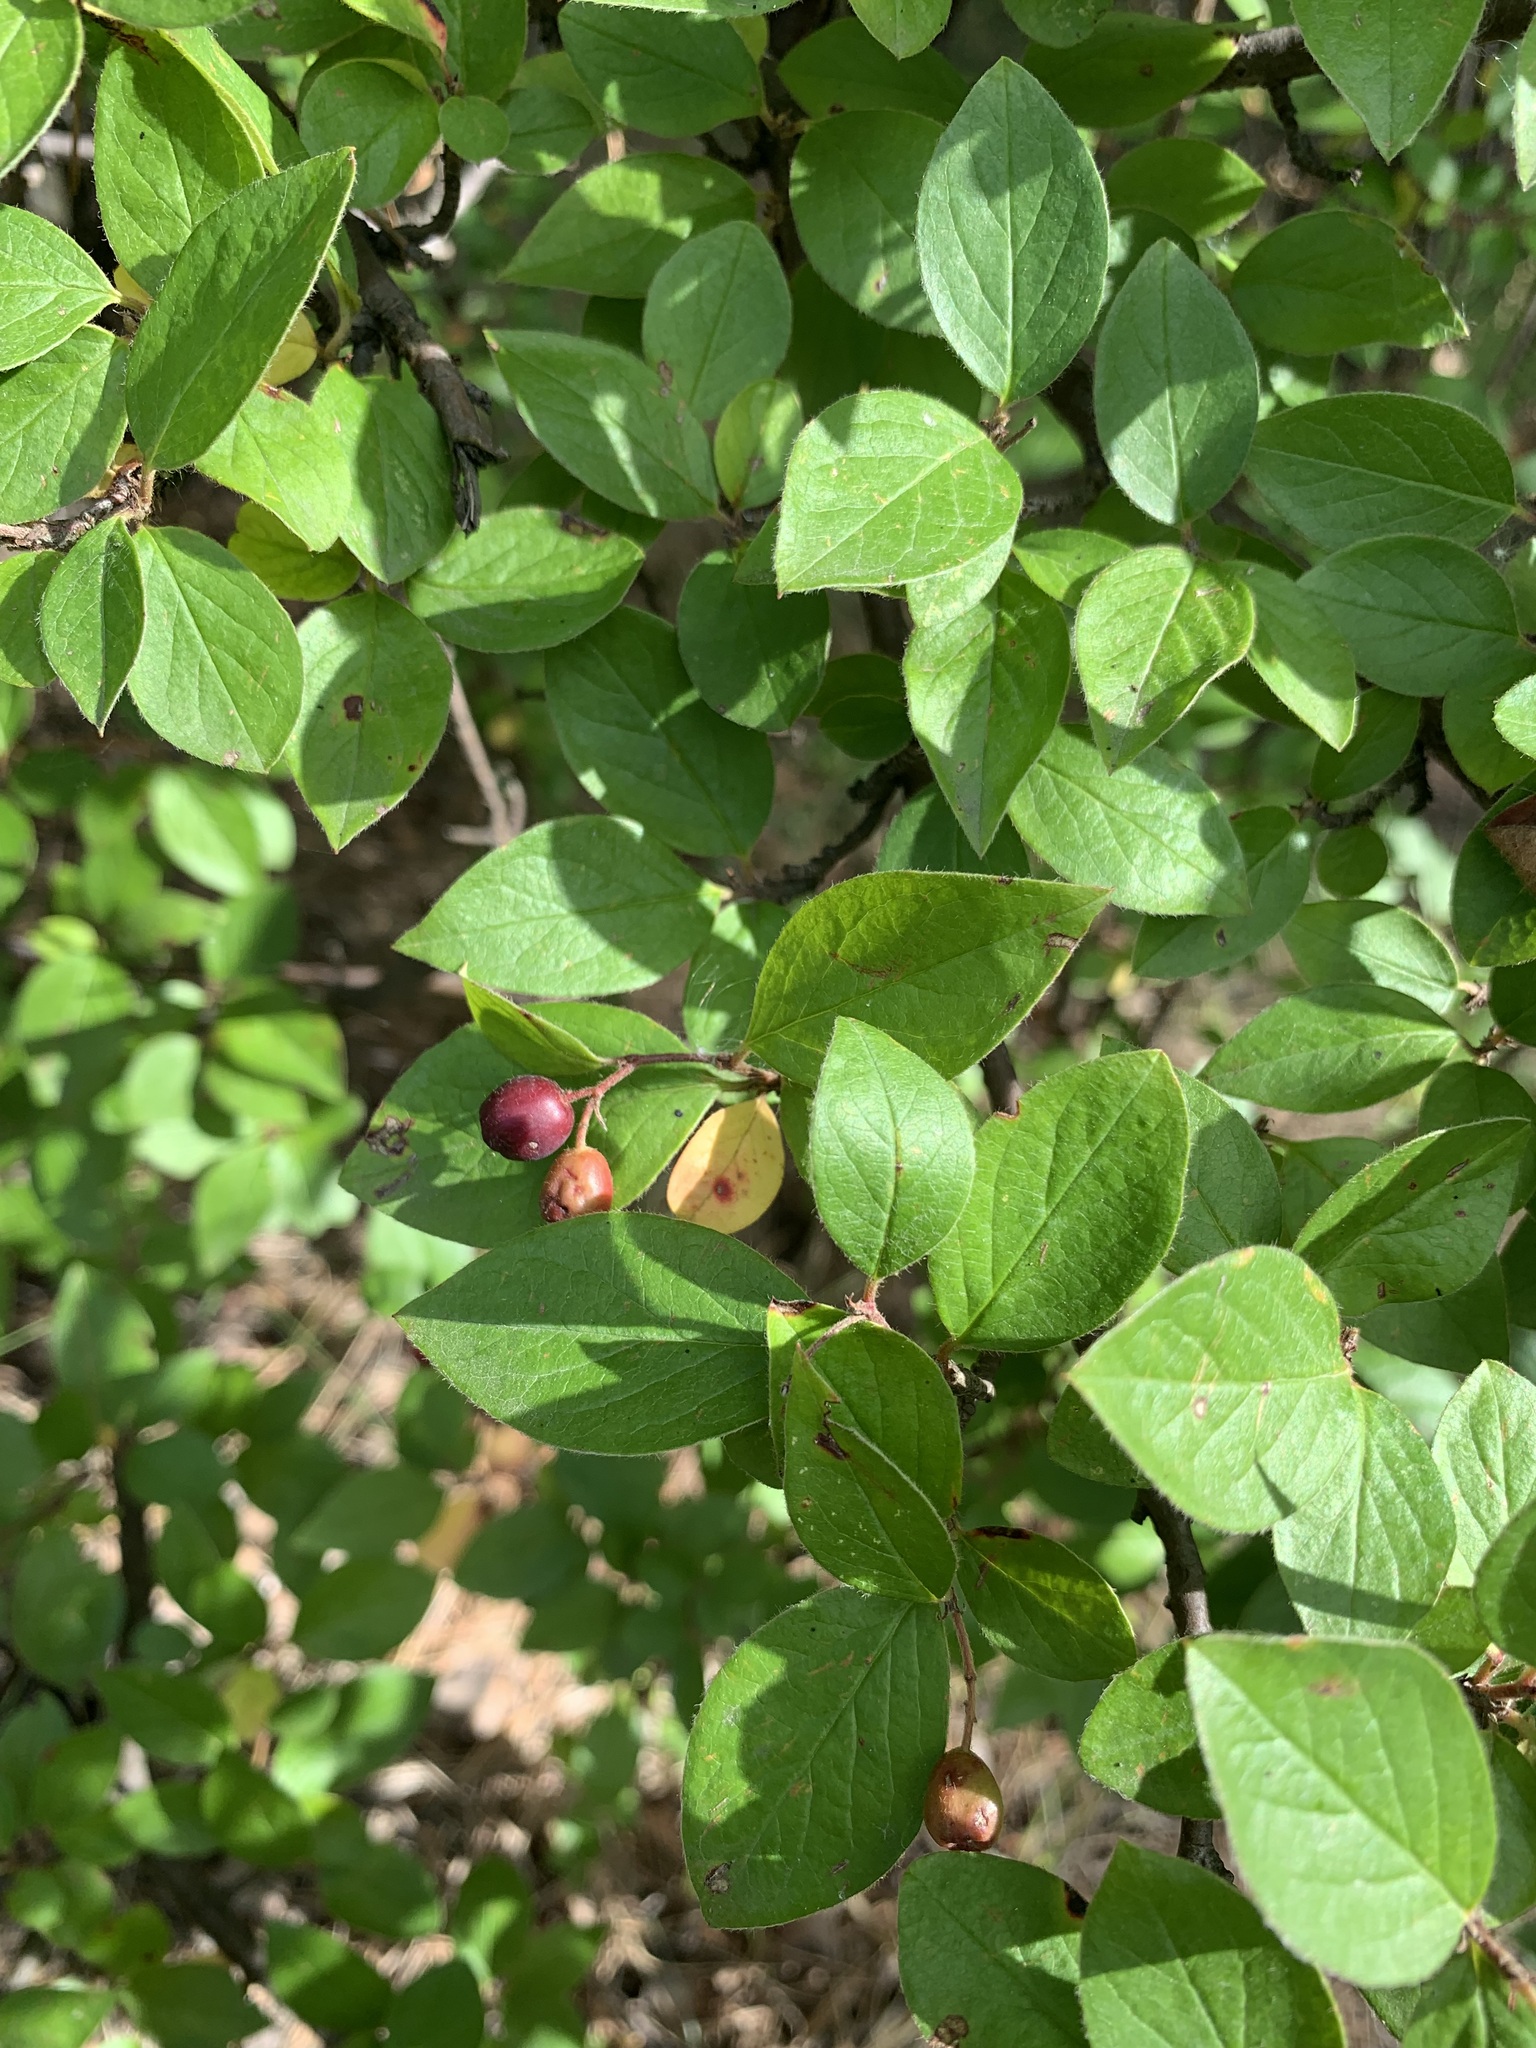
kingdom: Plantae
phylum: Tracheophyta
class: Magnoliopsida
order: Rosales
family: Rosaceae
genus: Cotoneaster
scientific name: Cotoneaster acutifolius
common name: Peking cotoneaster
